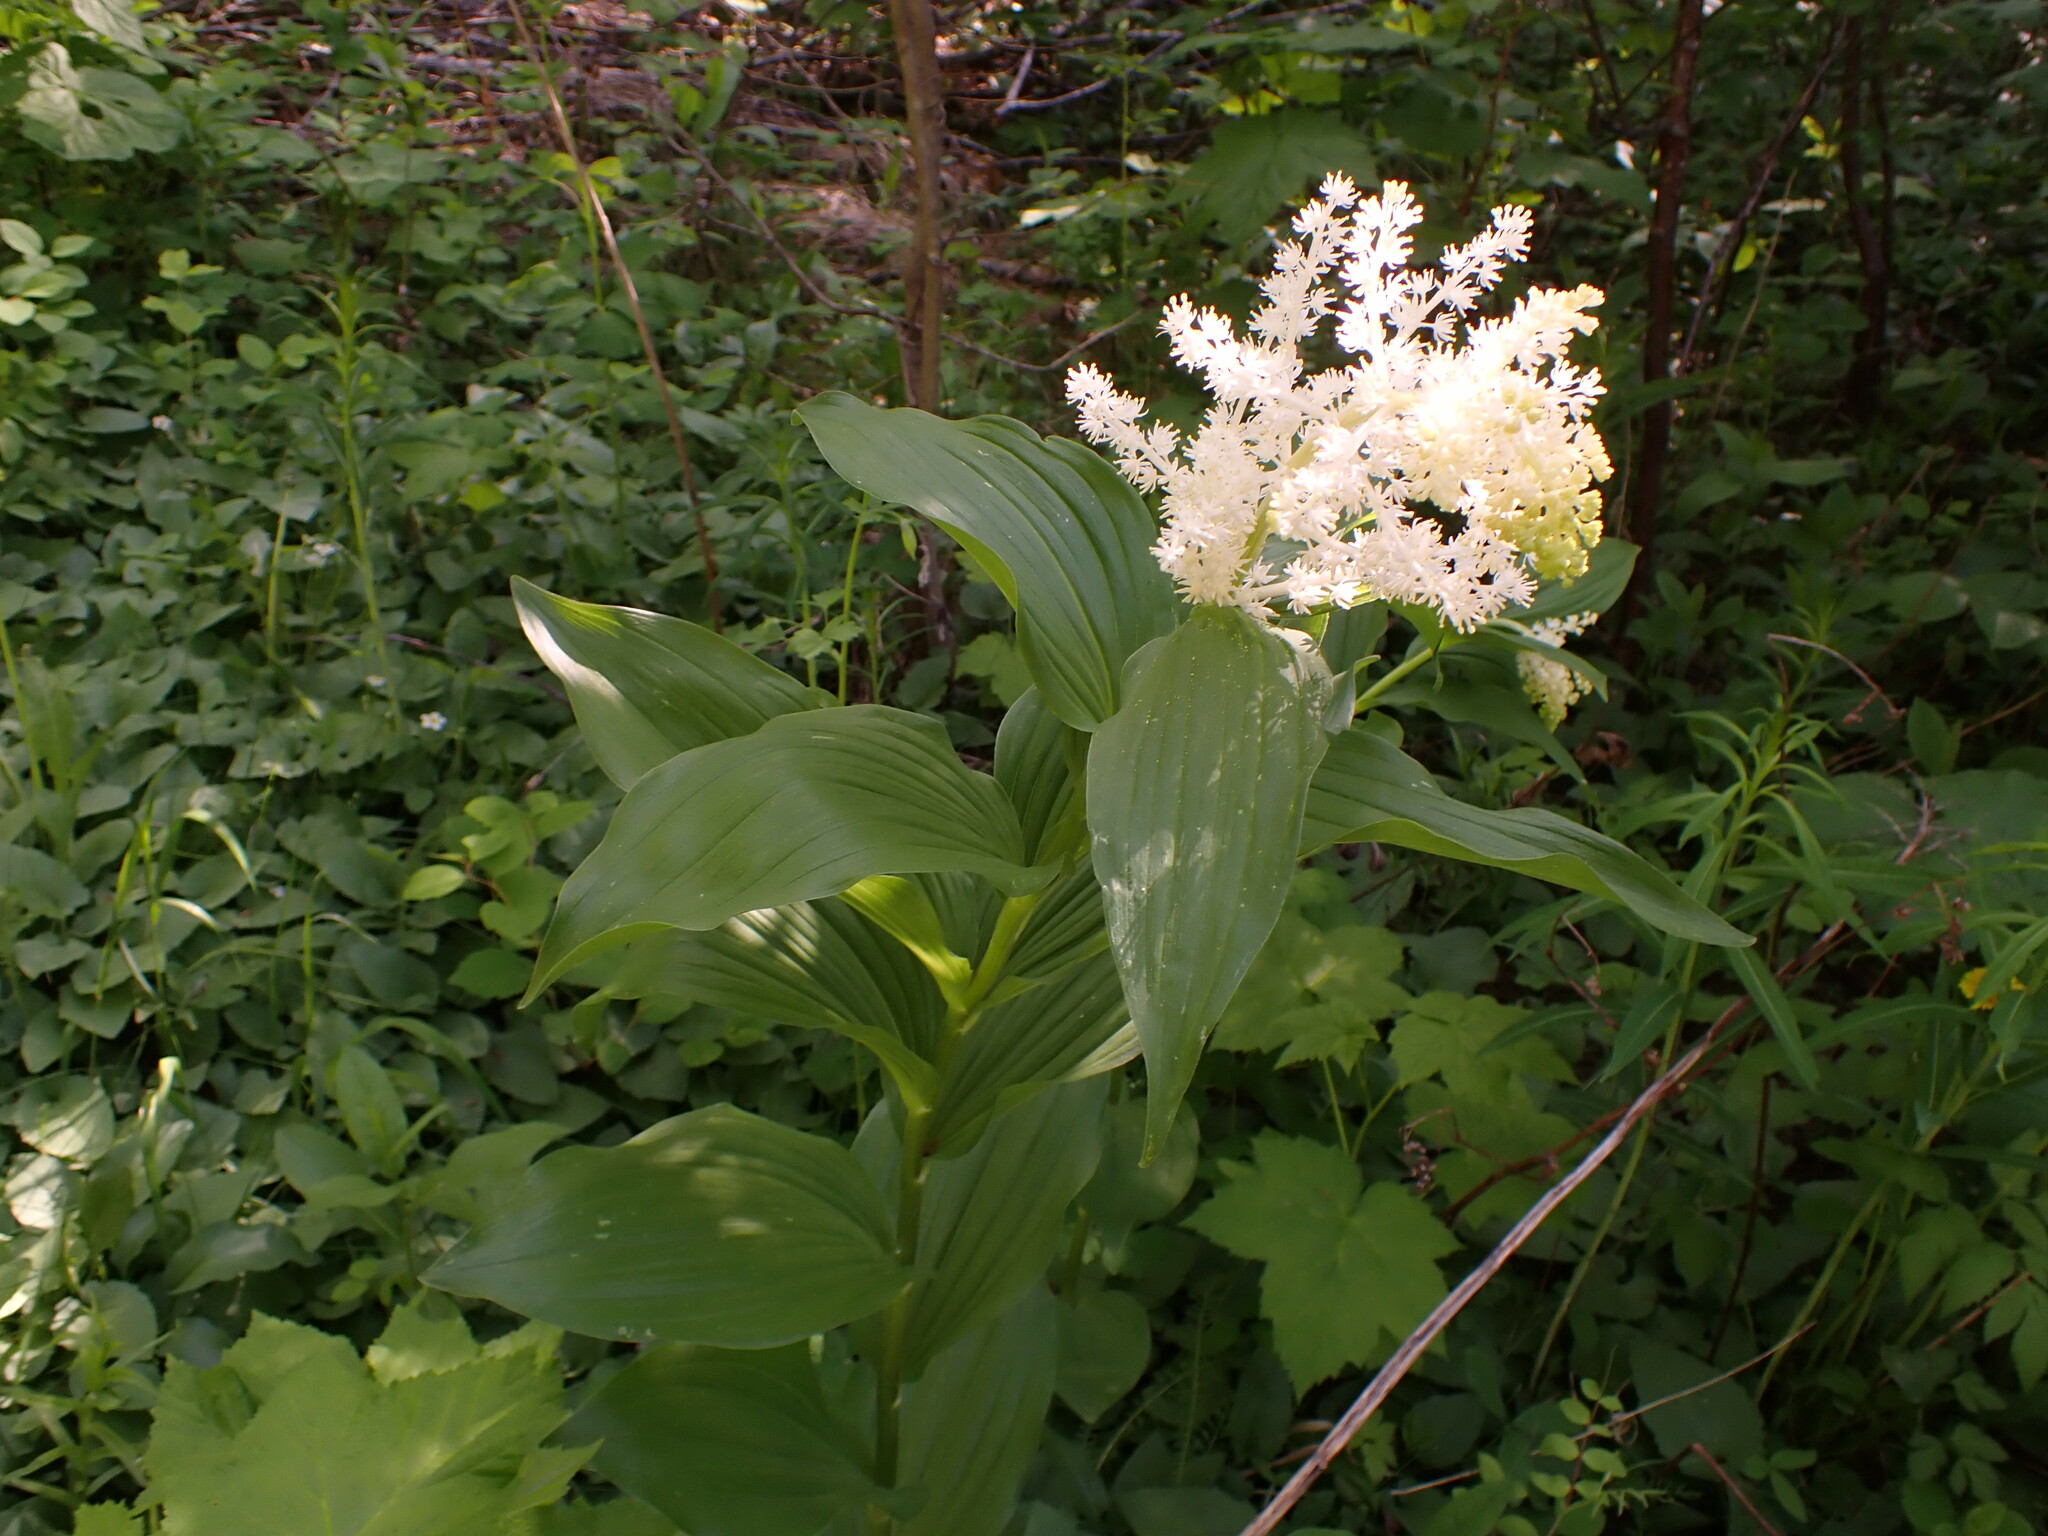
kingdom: Plantae
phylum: Tracheophyta
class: Liliopsida
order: Asparagales
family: Asparagaceae
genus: Maianthemum
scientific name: Maianthemum racemosum
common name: False spikenard
